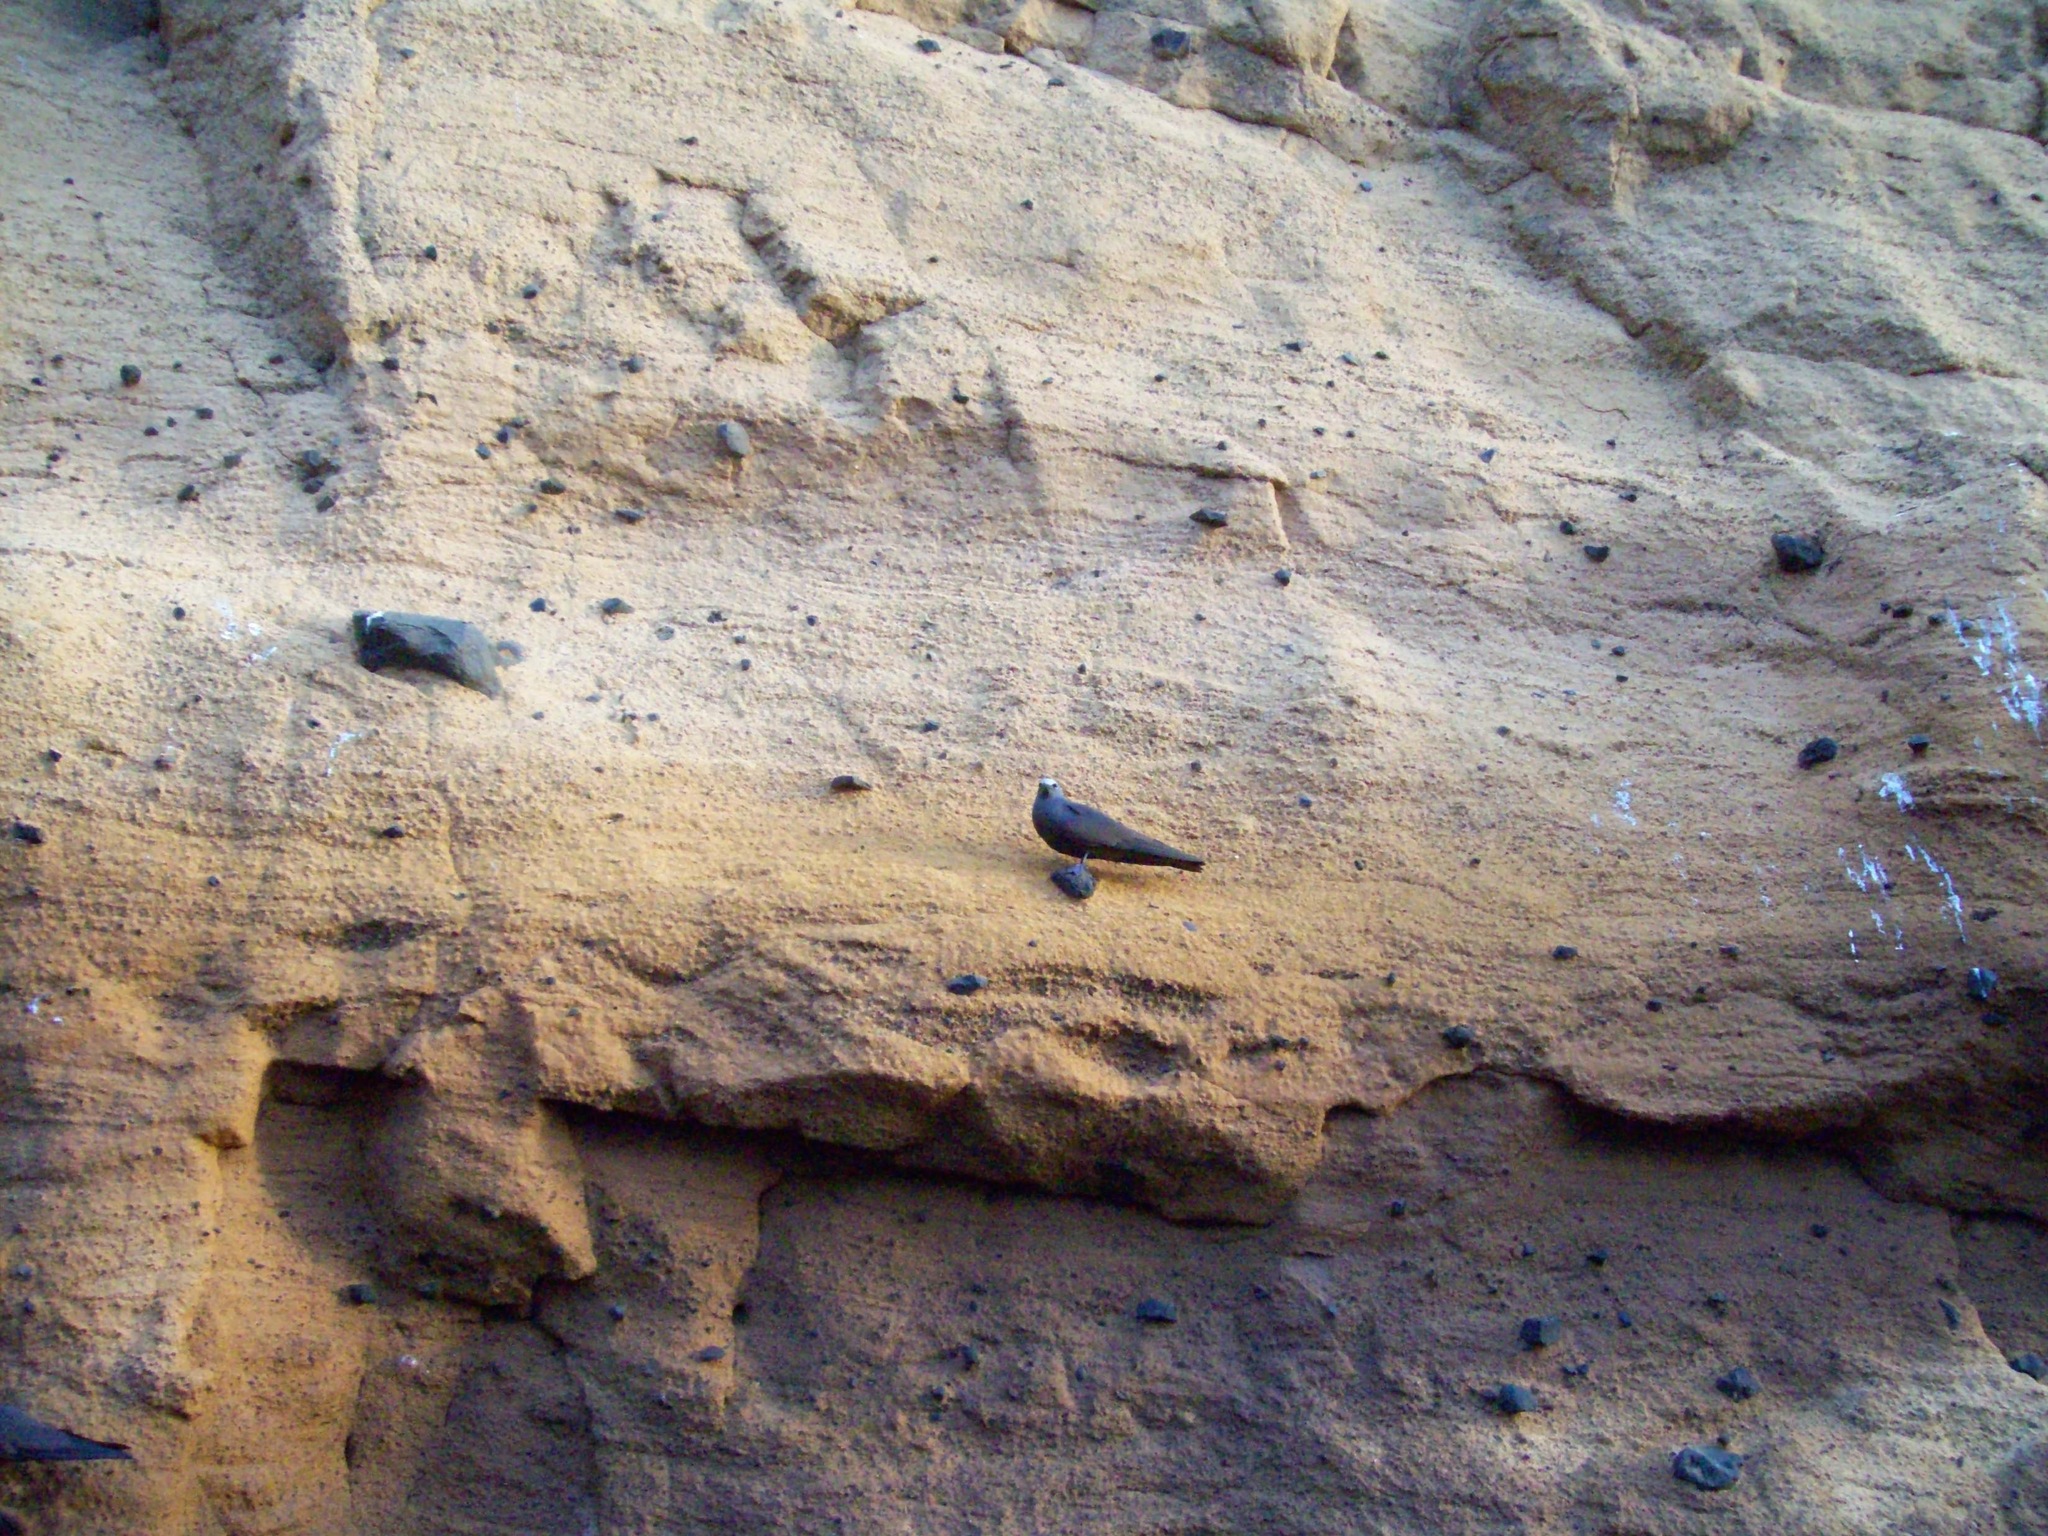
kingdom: Animalia
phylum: Chordata
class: Aves
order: Charadriiformes
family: Laridae
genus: Anous
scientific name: Anous stolidus
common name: Brown noddy
